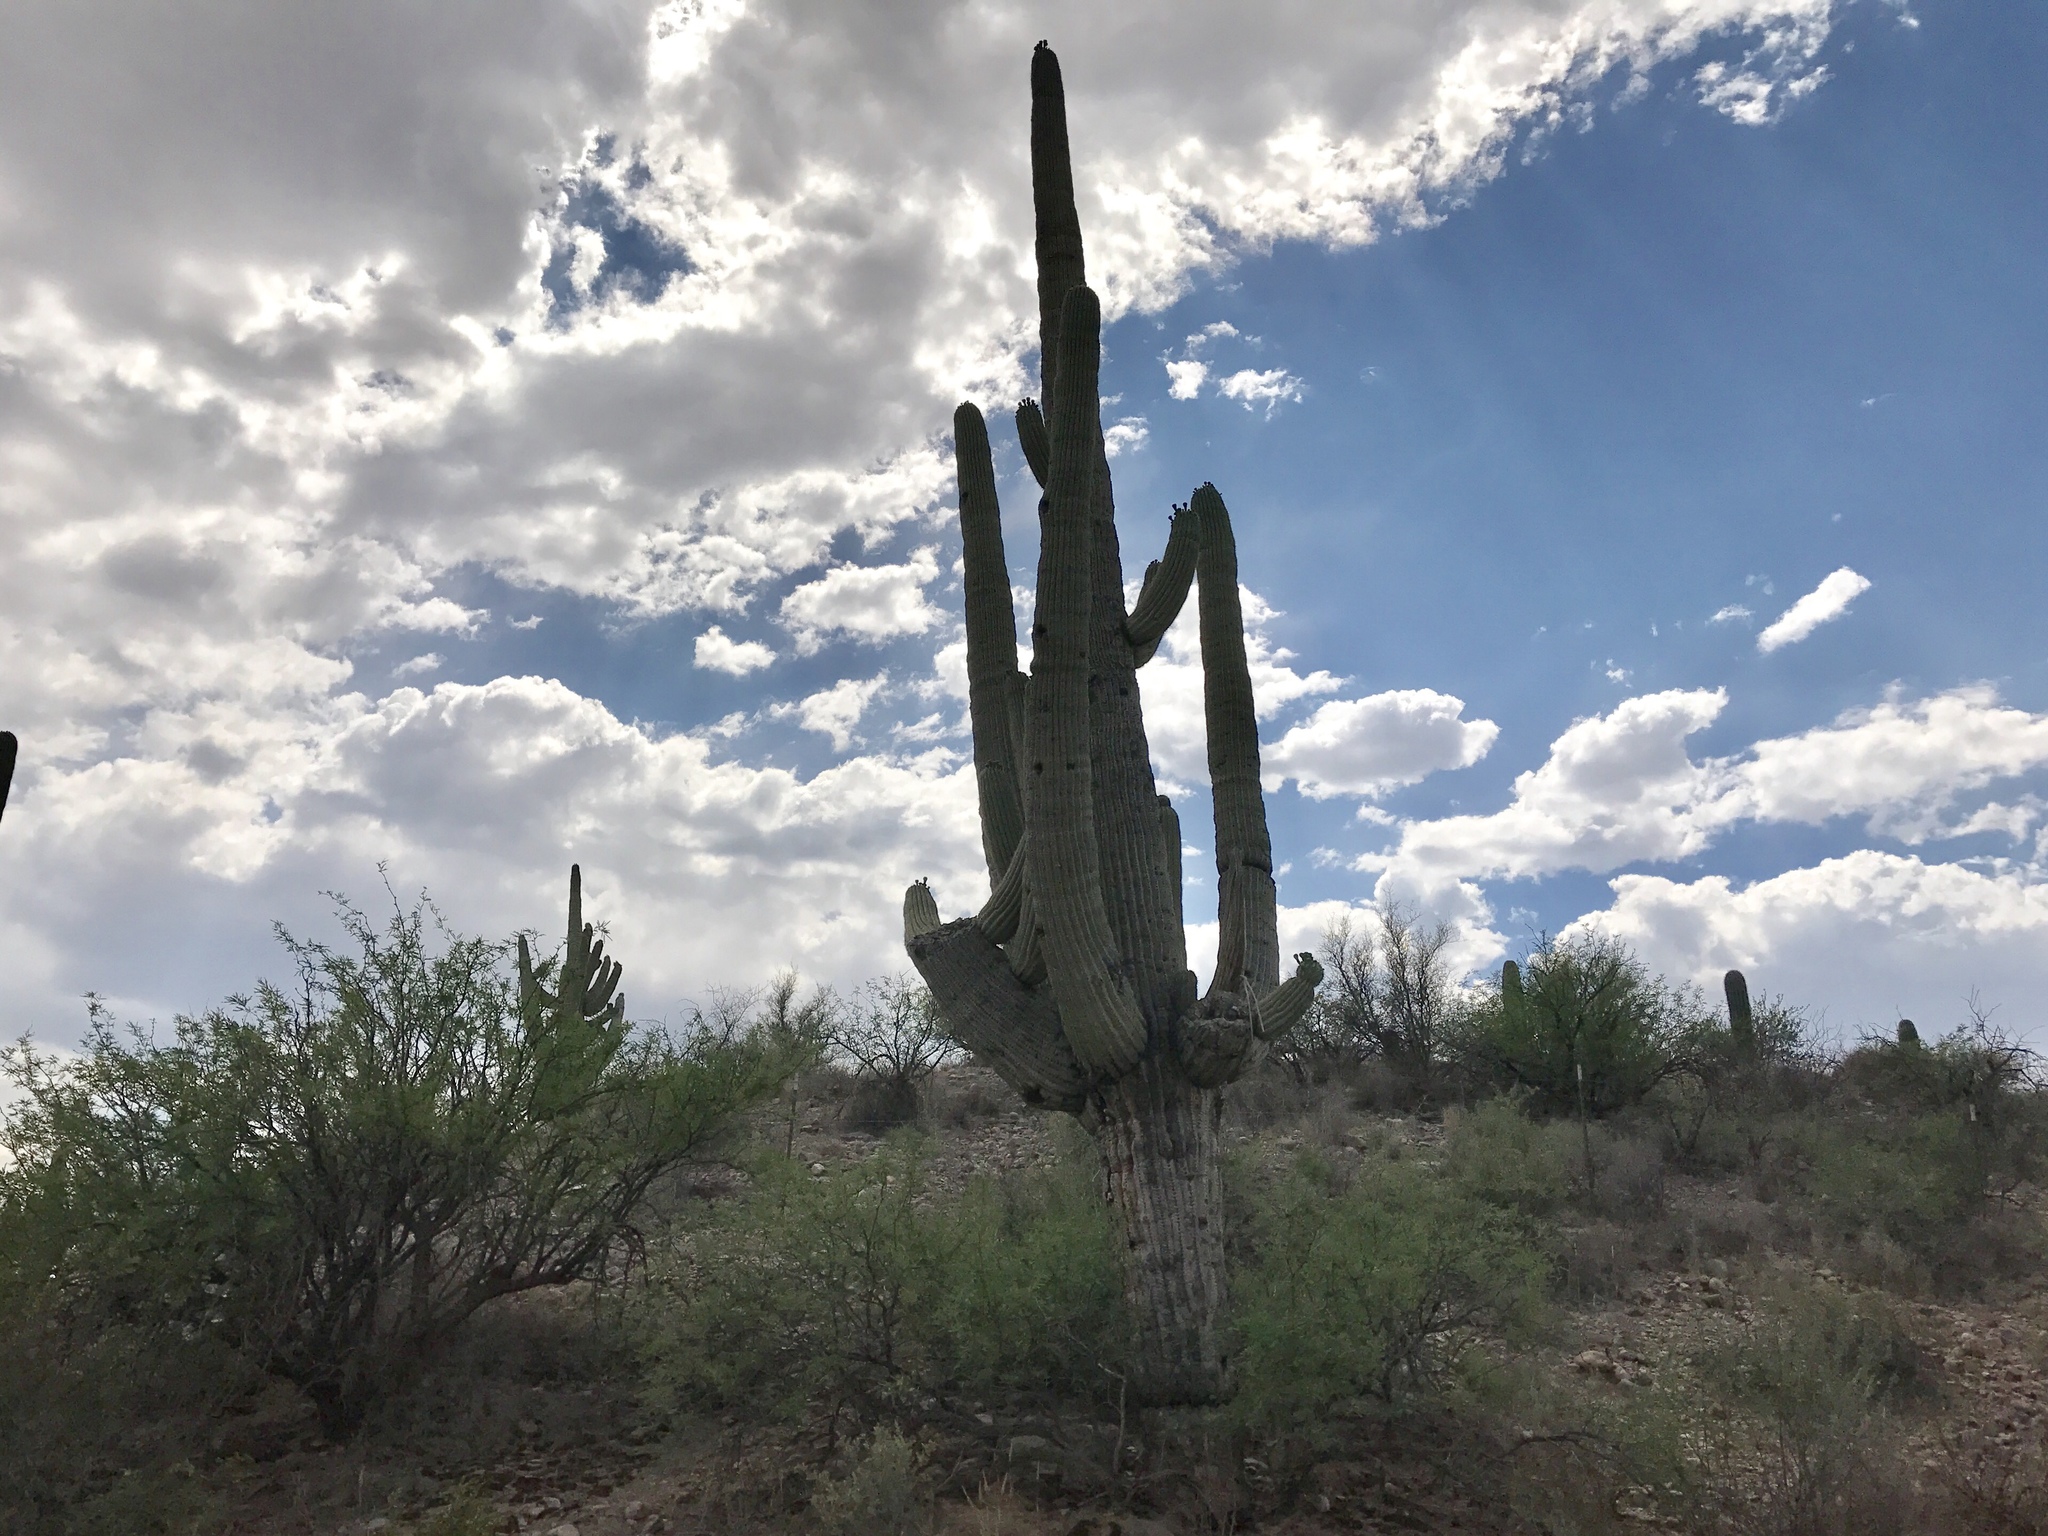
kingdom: Plantae
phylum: Tracheophyta
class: Magnoliopsida
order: Caryophyllales
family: Cactaceae
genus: Carnegiea
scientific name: Carnegiea gigantea
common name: Saguaro
